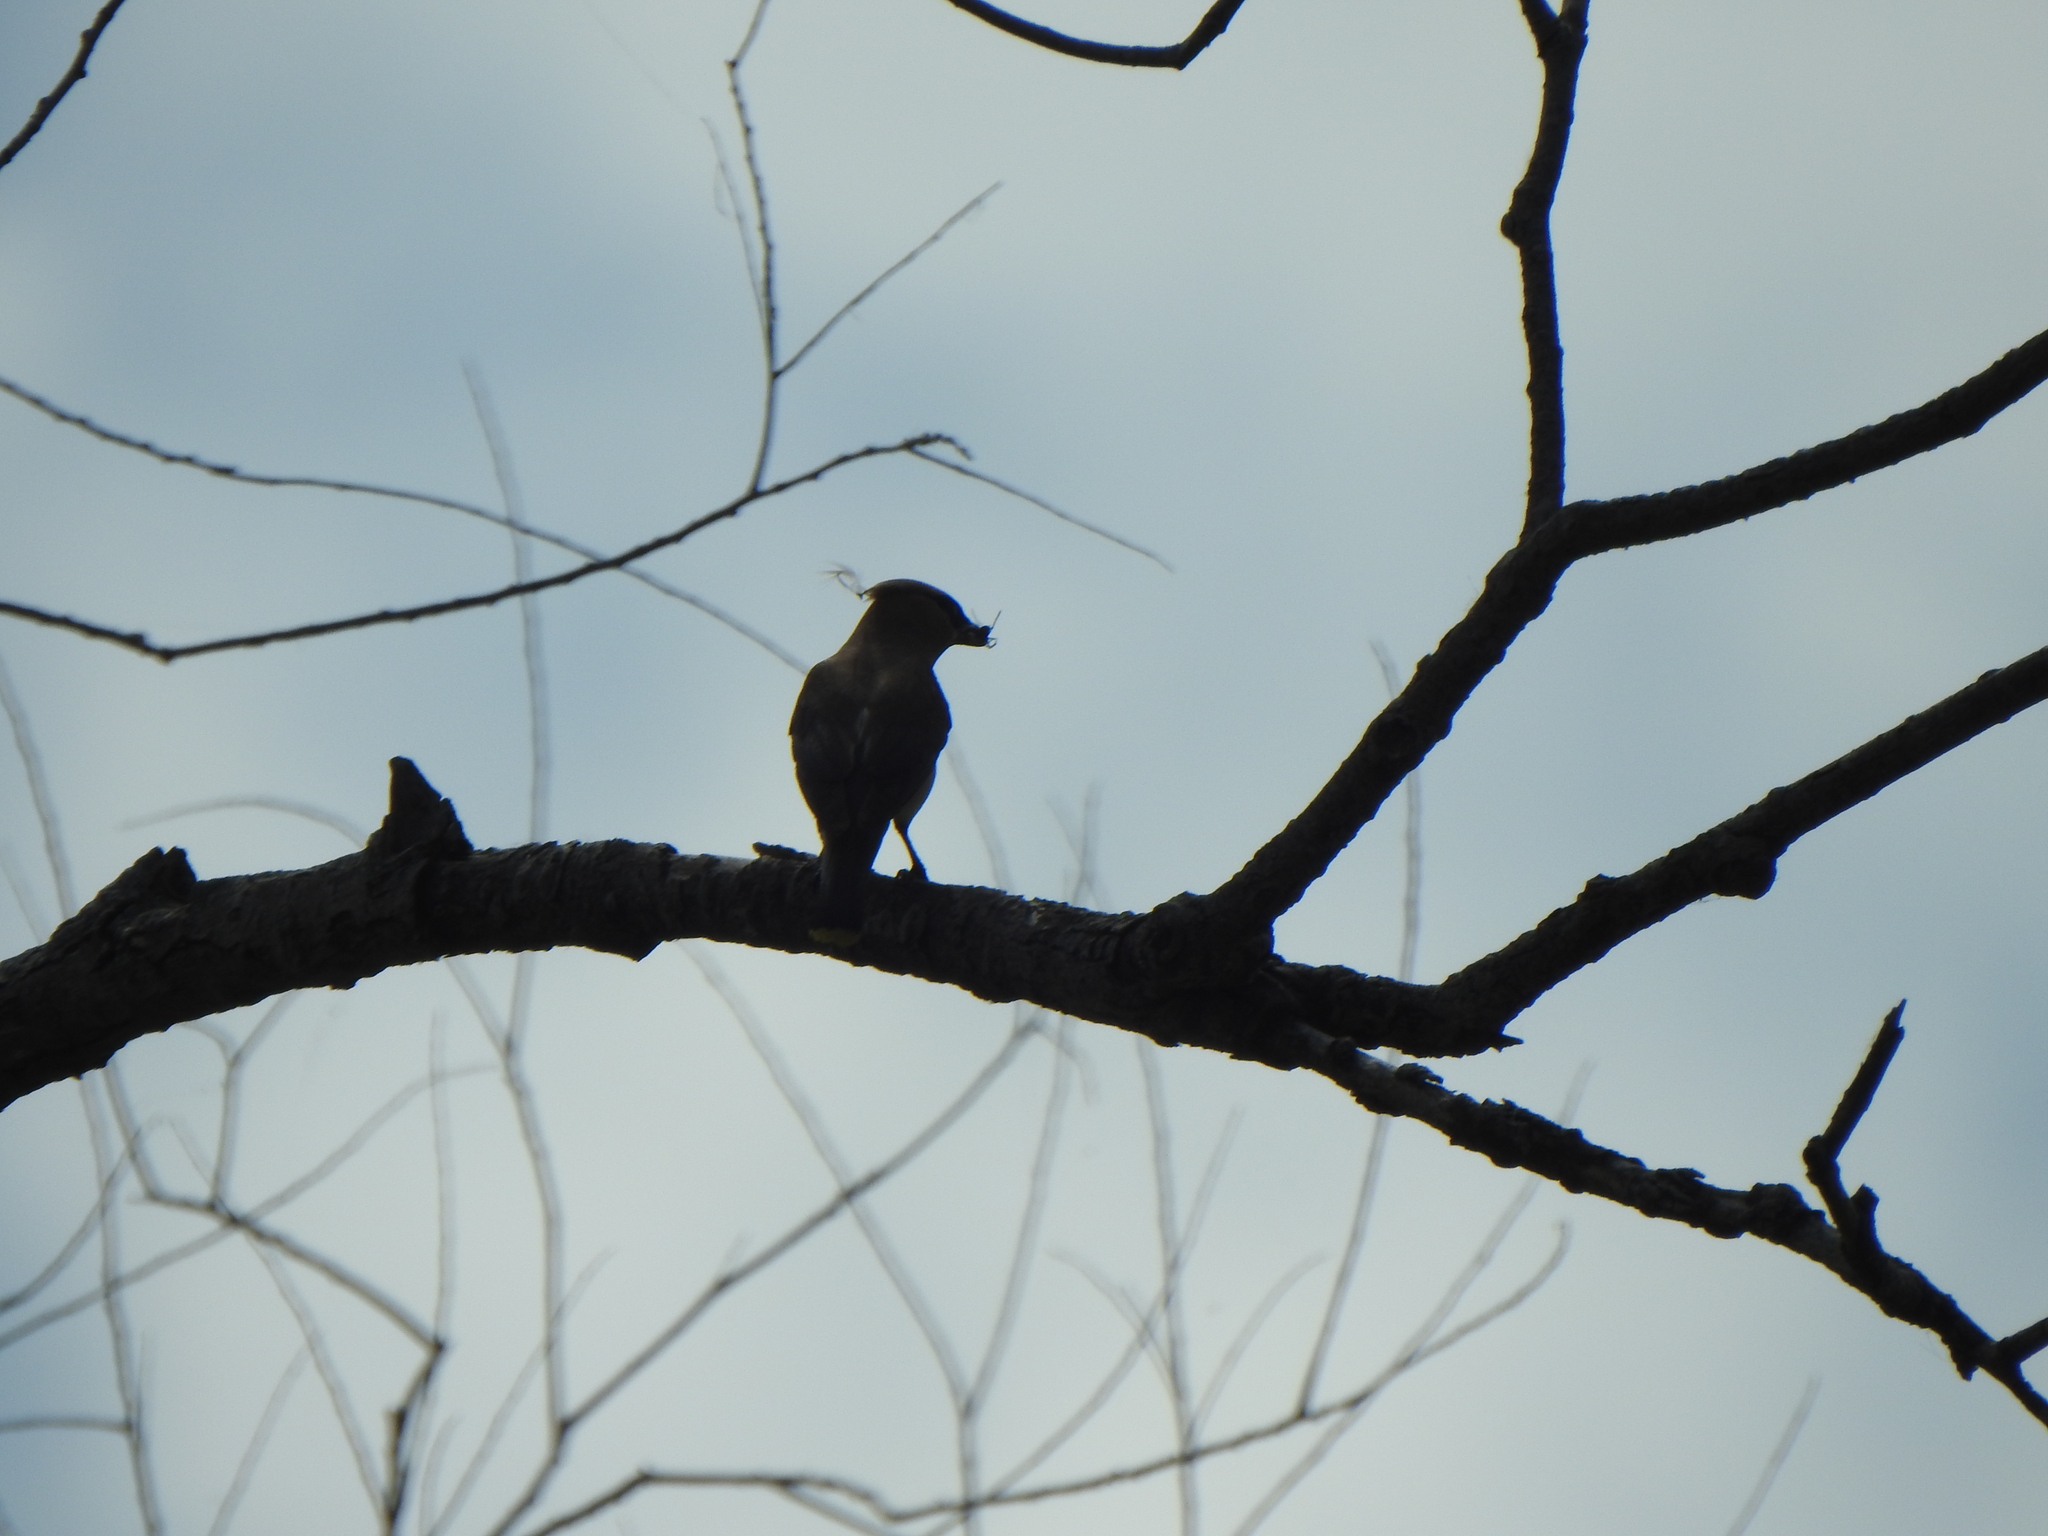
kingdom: Animalia
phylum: Chordata
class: Aves
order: Passeriformes
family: Bombycillidae
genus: Bombycilla
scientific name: Bombycilla cedrorum
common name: Cedar waxwing
